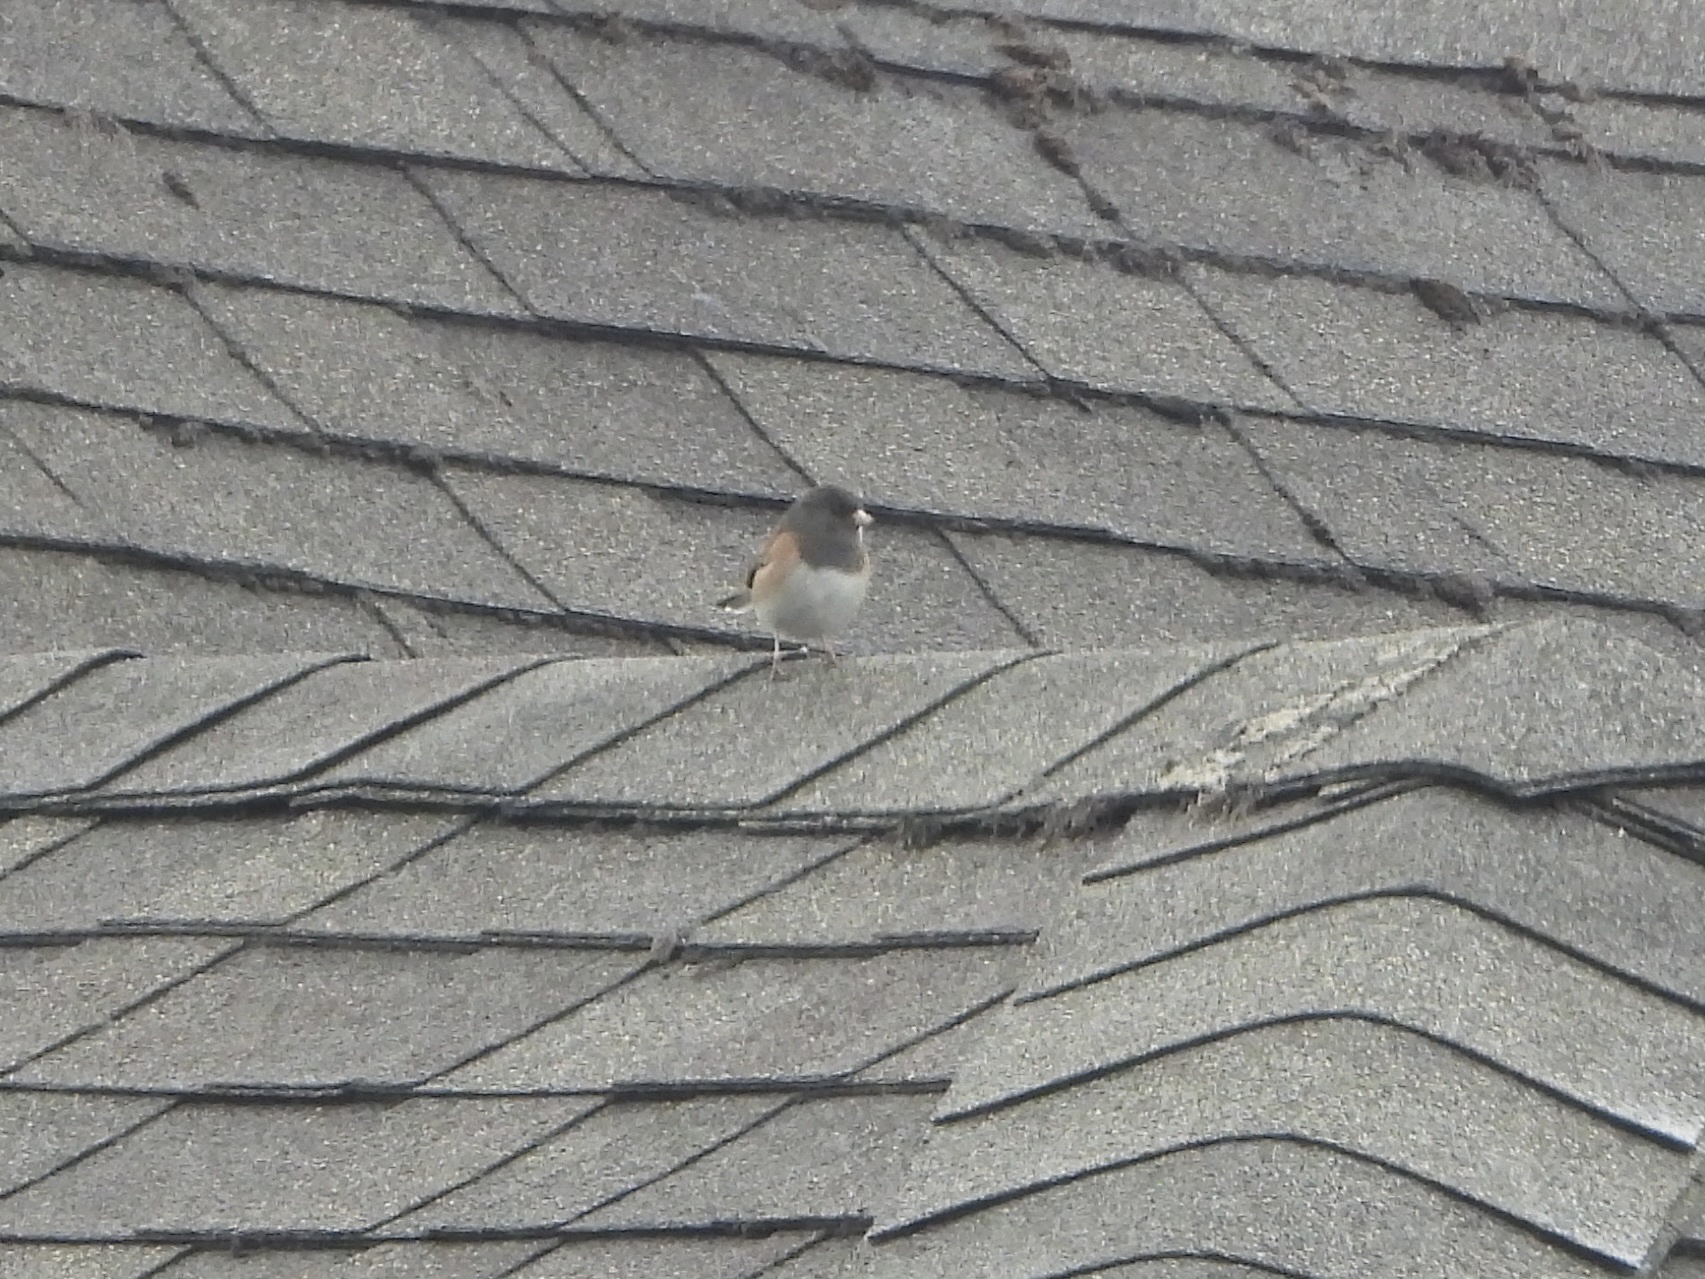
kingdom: Animalia
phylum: Chordata
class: Aves
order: Passeriformes
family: Passerellidae
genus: Junco
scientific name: Junco hyemalis
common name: Dark-eyed junco
